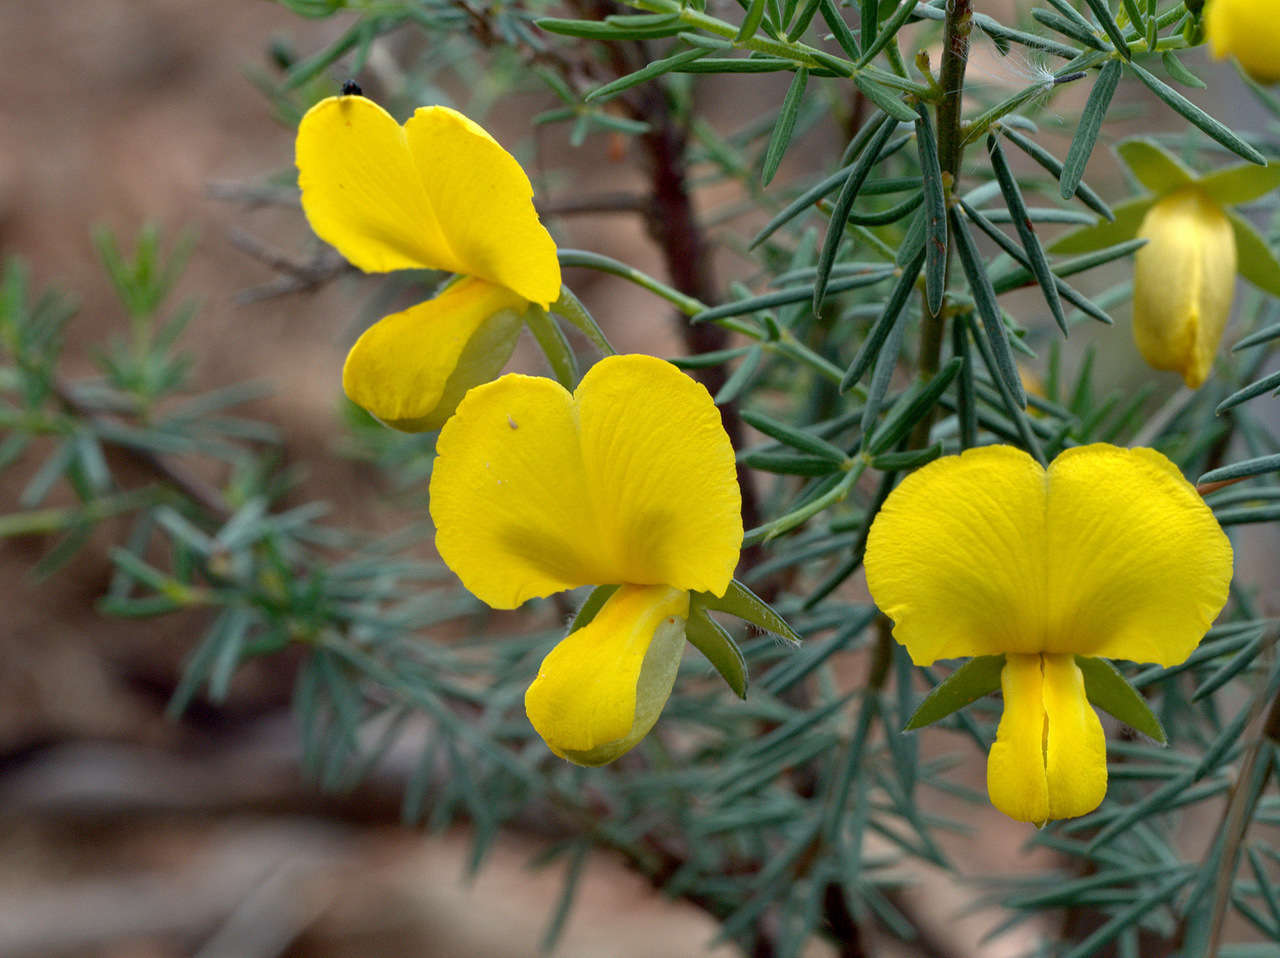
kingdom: Plantae
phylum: Tracheophyta
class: Magnoliopsida
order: Fabales
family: Fabaceae
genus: Gompholobium
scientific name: Gompholobium huegelii
